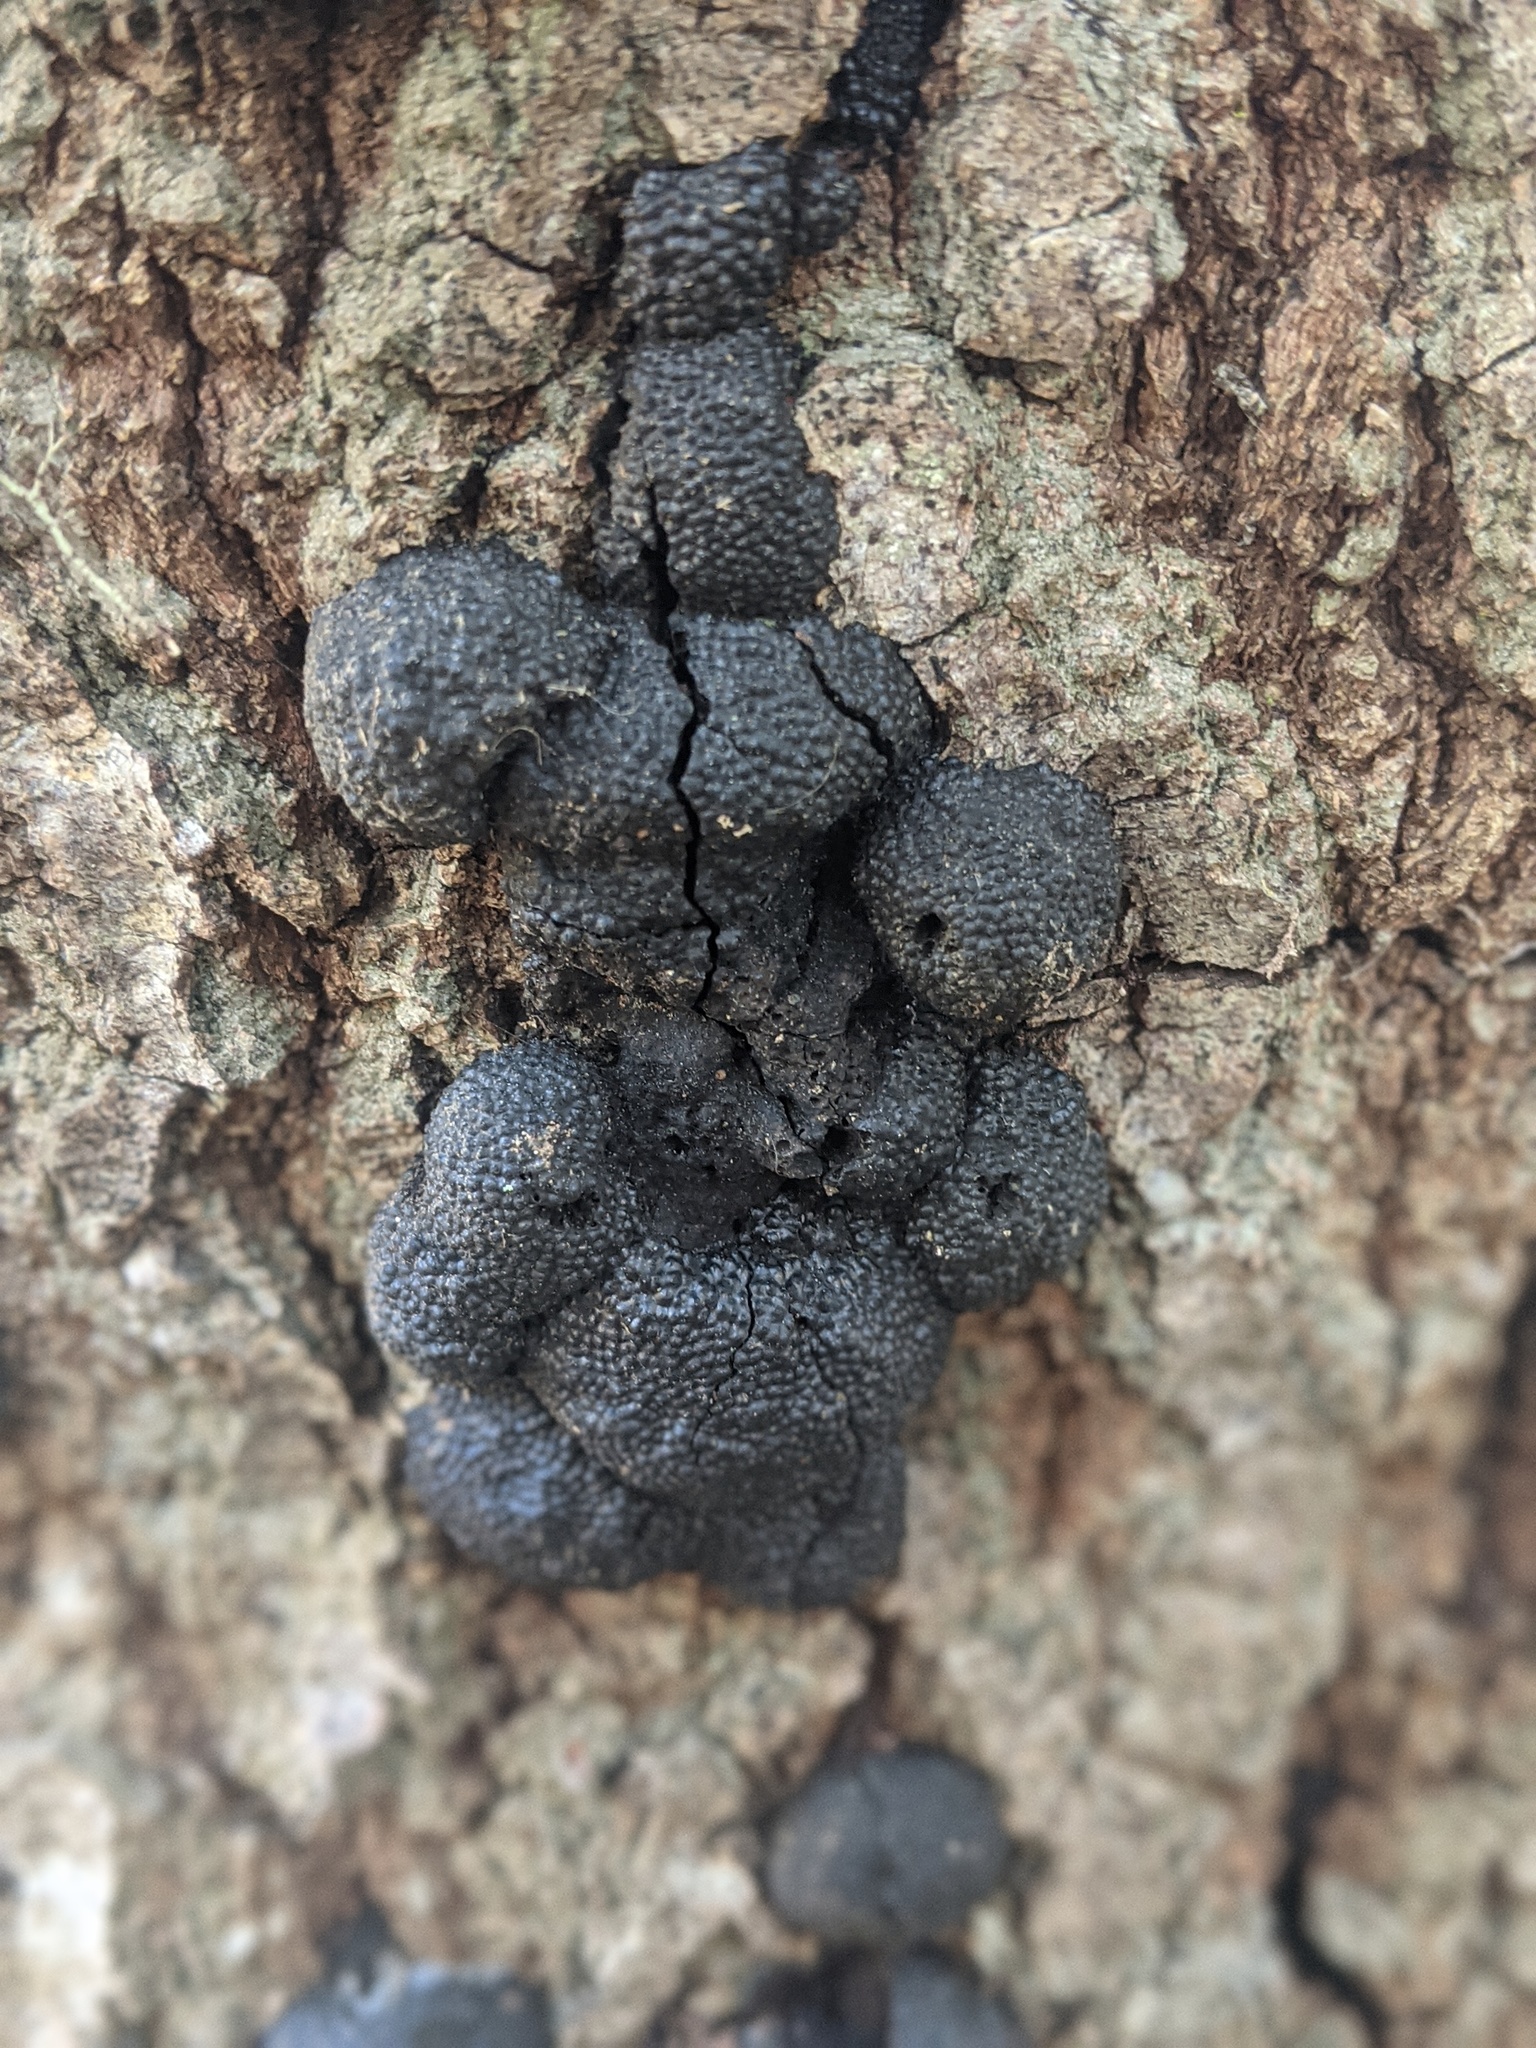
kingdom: Fungi
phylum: Ascomycota
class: Sordariomycetes
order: Xylariales
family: Hypoxylaceae
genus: Annulohypoxylon
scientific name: Annulohypoxylon thouarsianum
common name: Cramp balls
